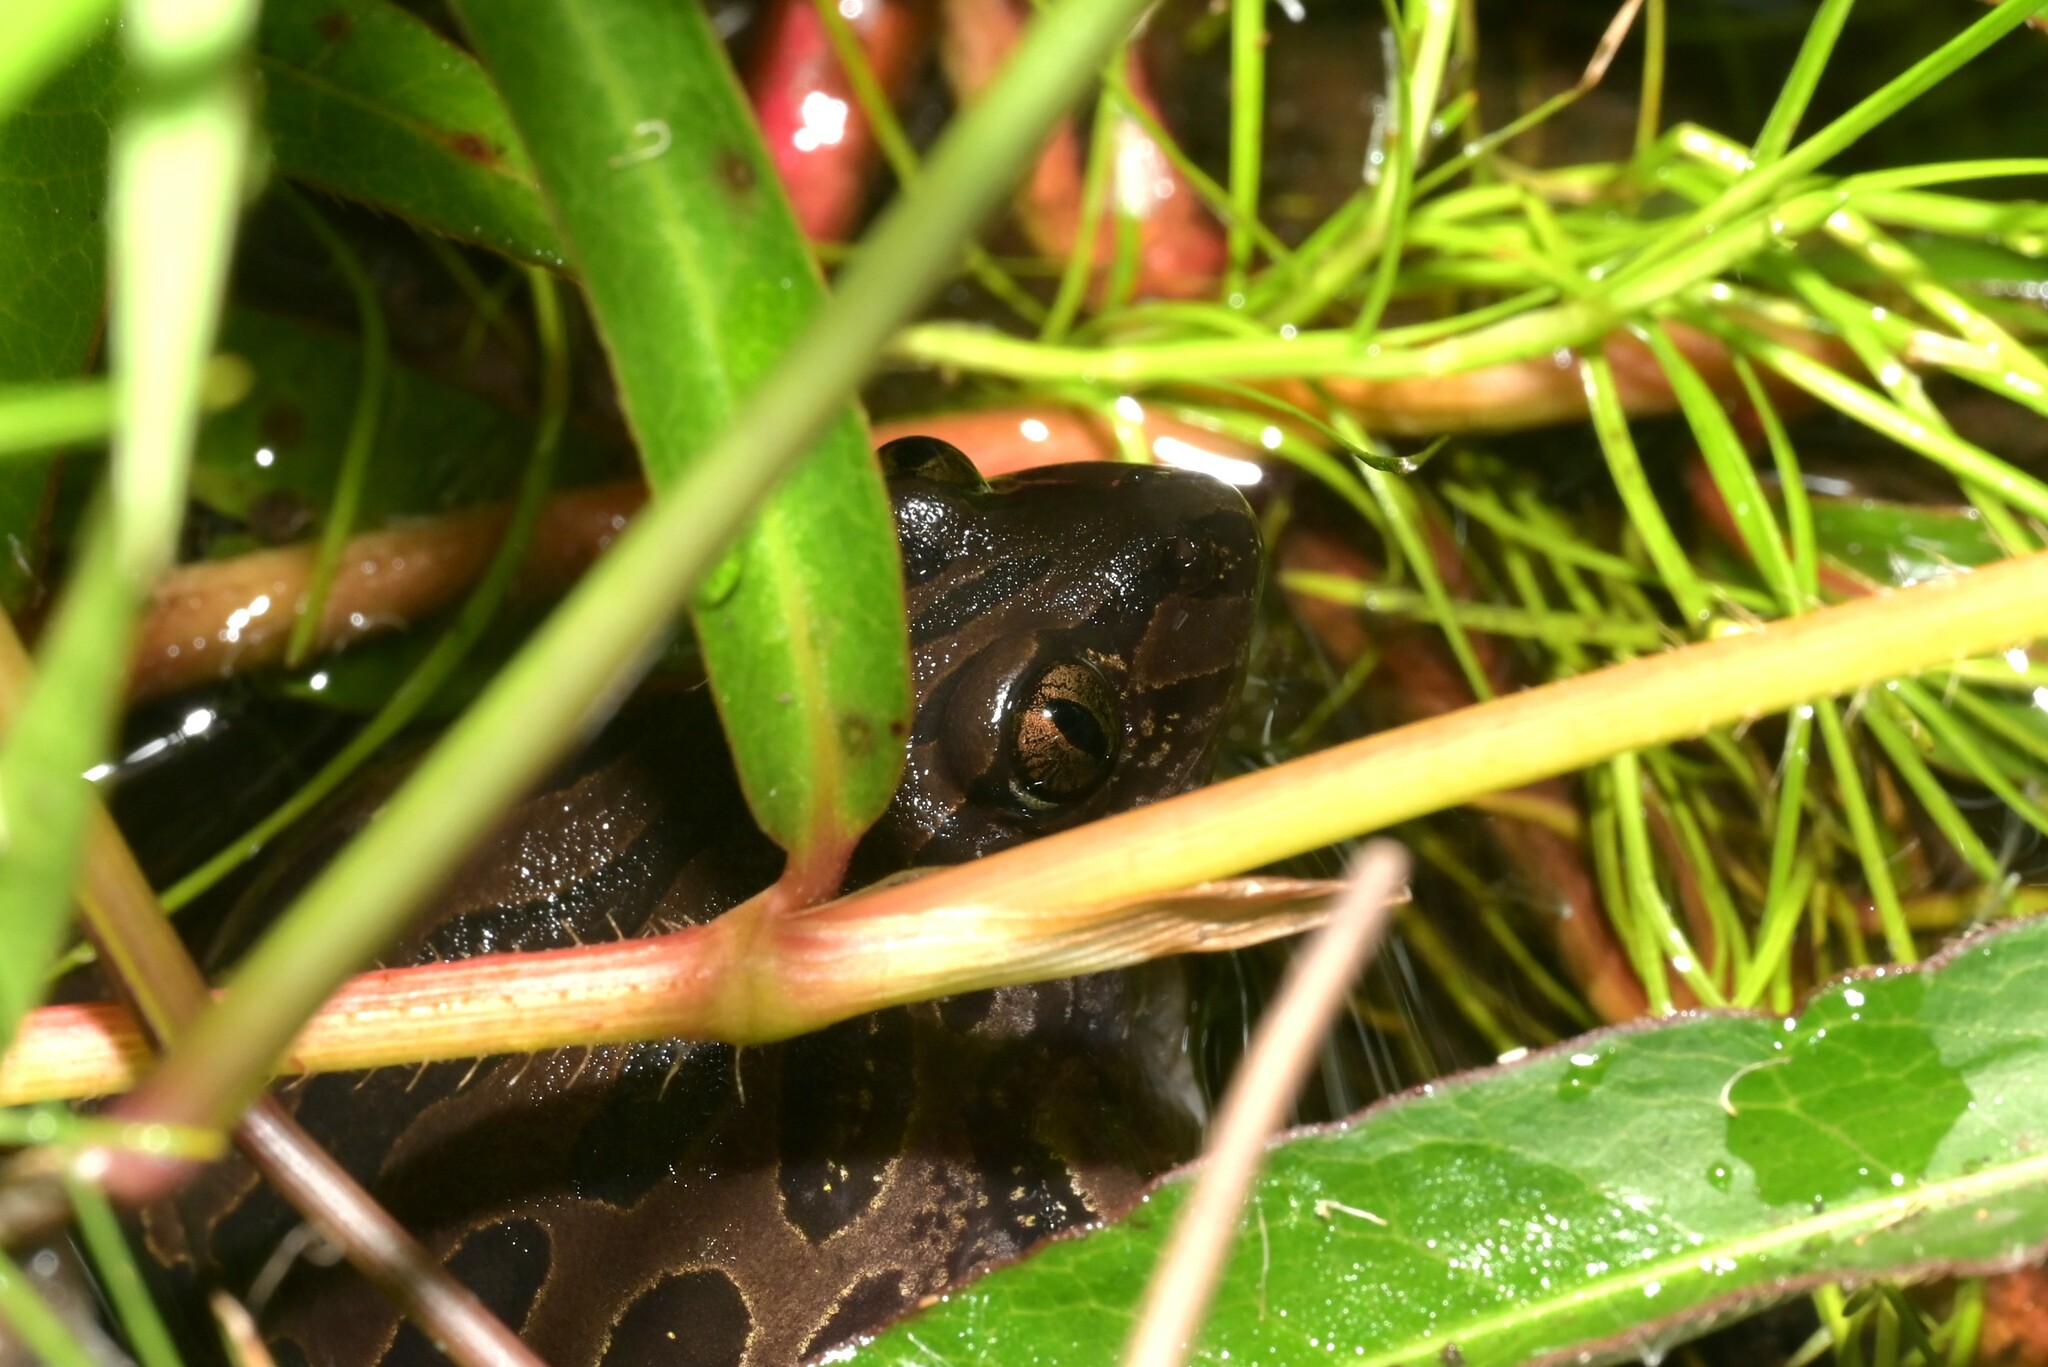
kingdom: Animalia
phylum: Chordata
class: Amphibia
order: Anura
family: Hyperoliidae
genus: Kassina
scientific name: Kassina senegalensis
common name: Senegal land frog
